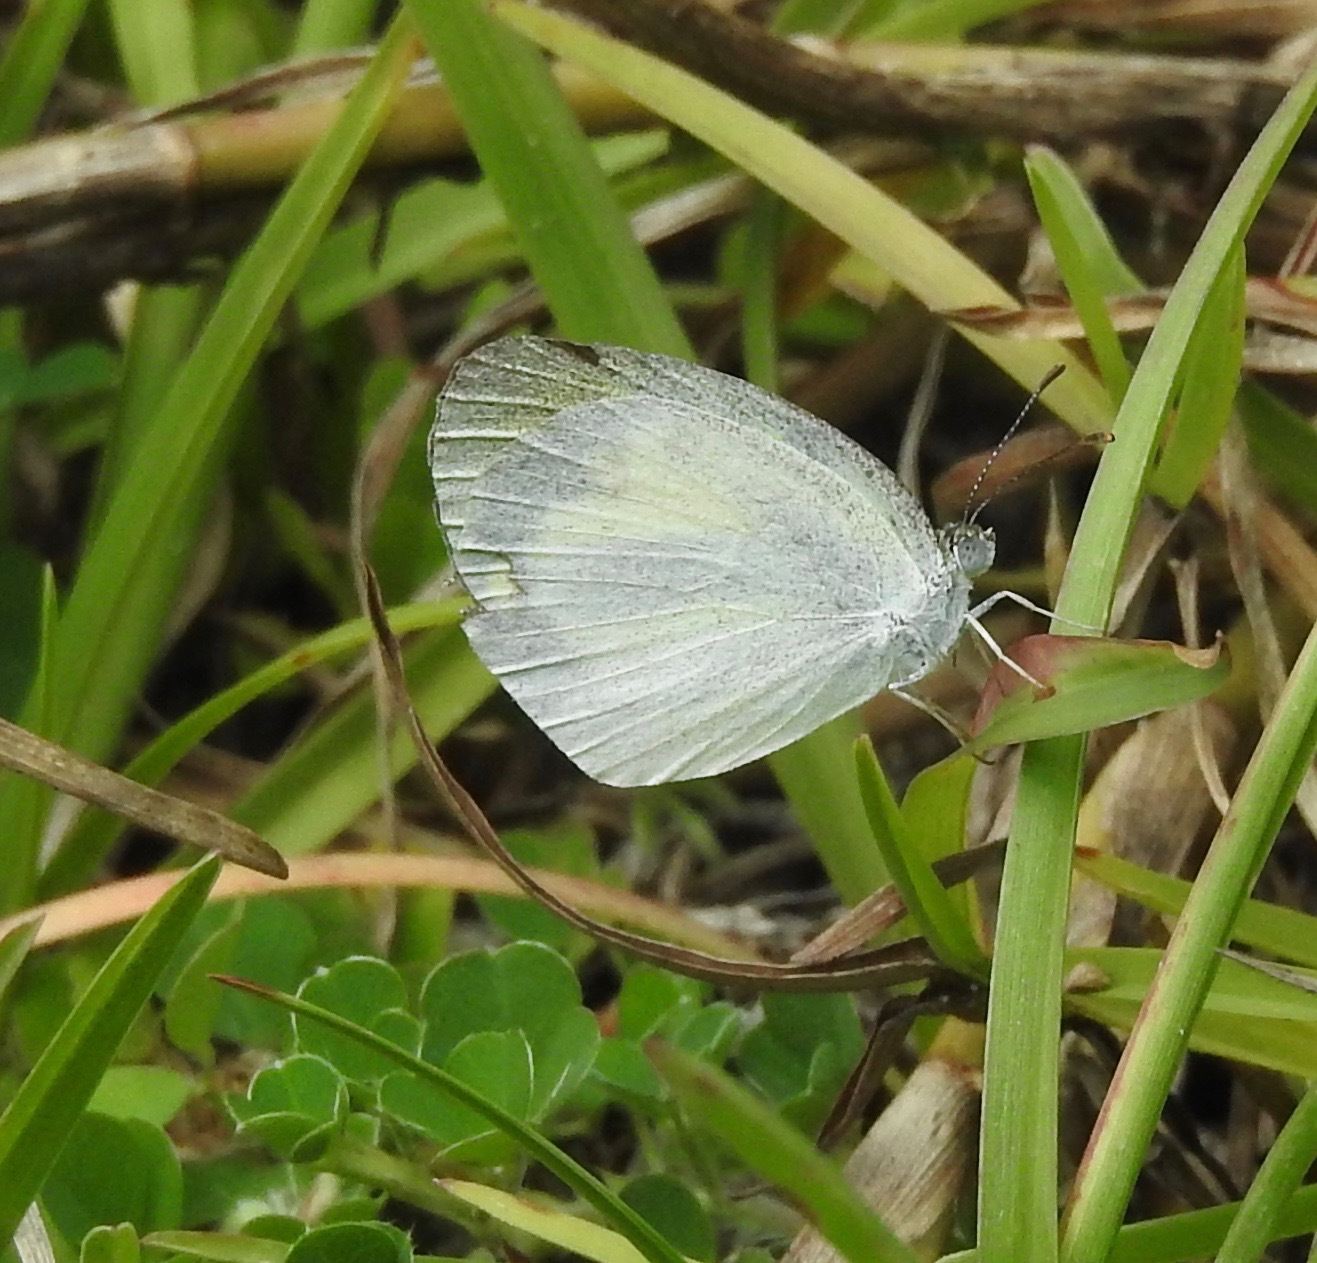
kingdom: Animalia
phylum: Arthropoda
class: Insecta
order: Lepidoptera
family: Pieridae
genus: Eurema
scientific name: Eurema daira
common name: Barred sulphur
